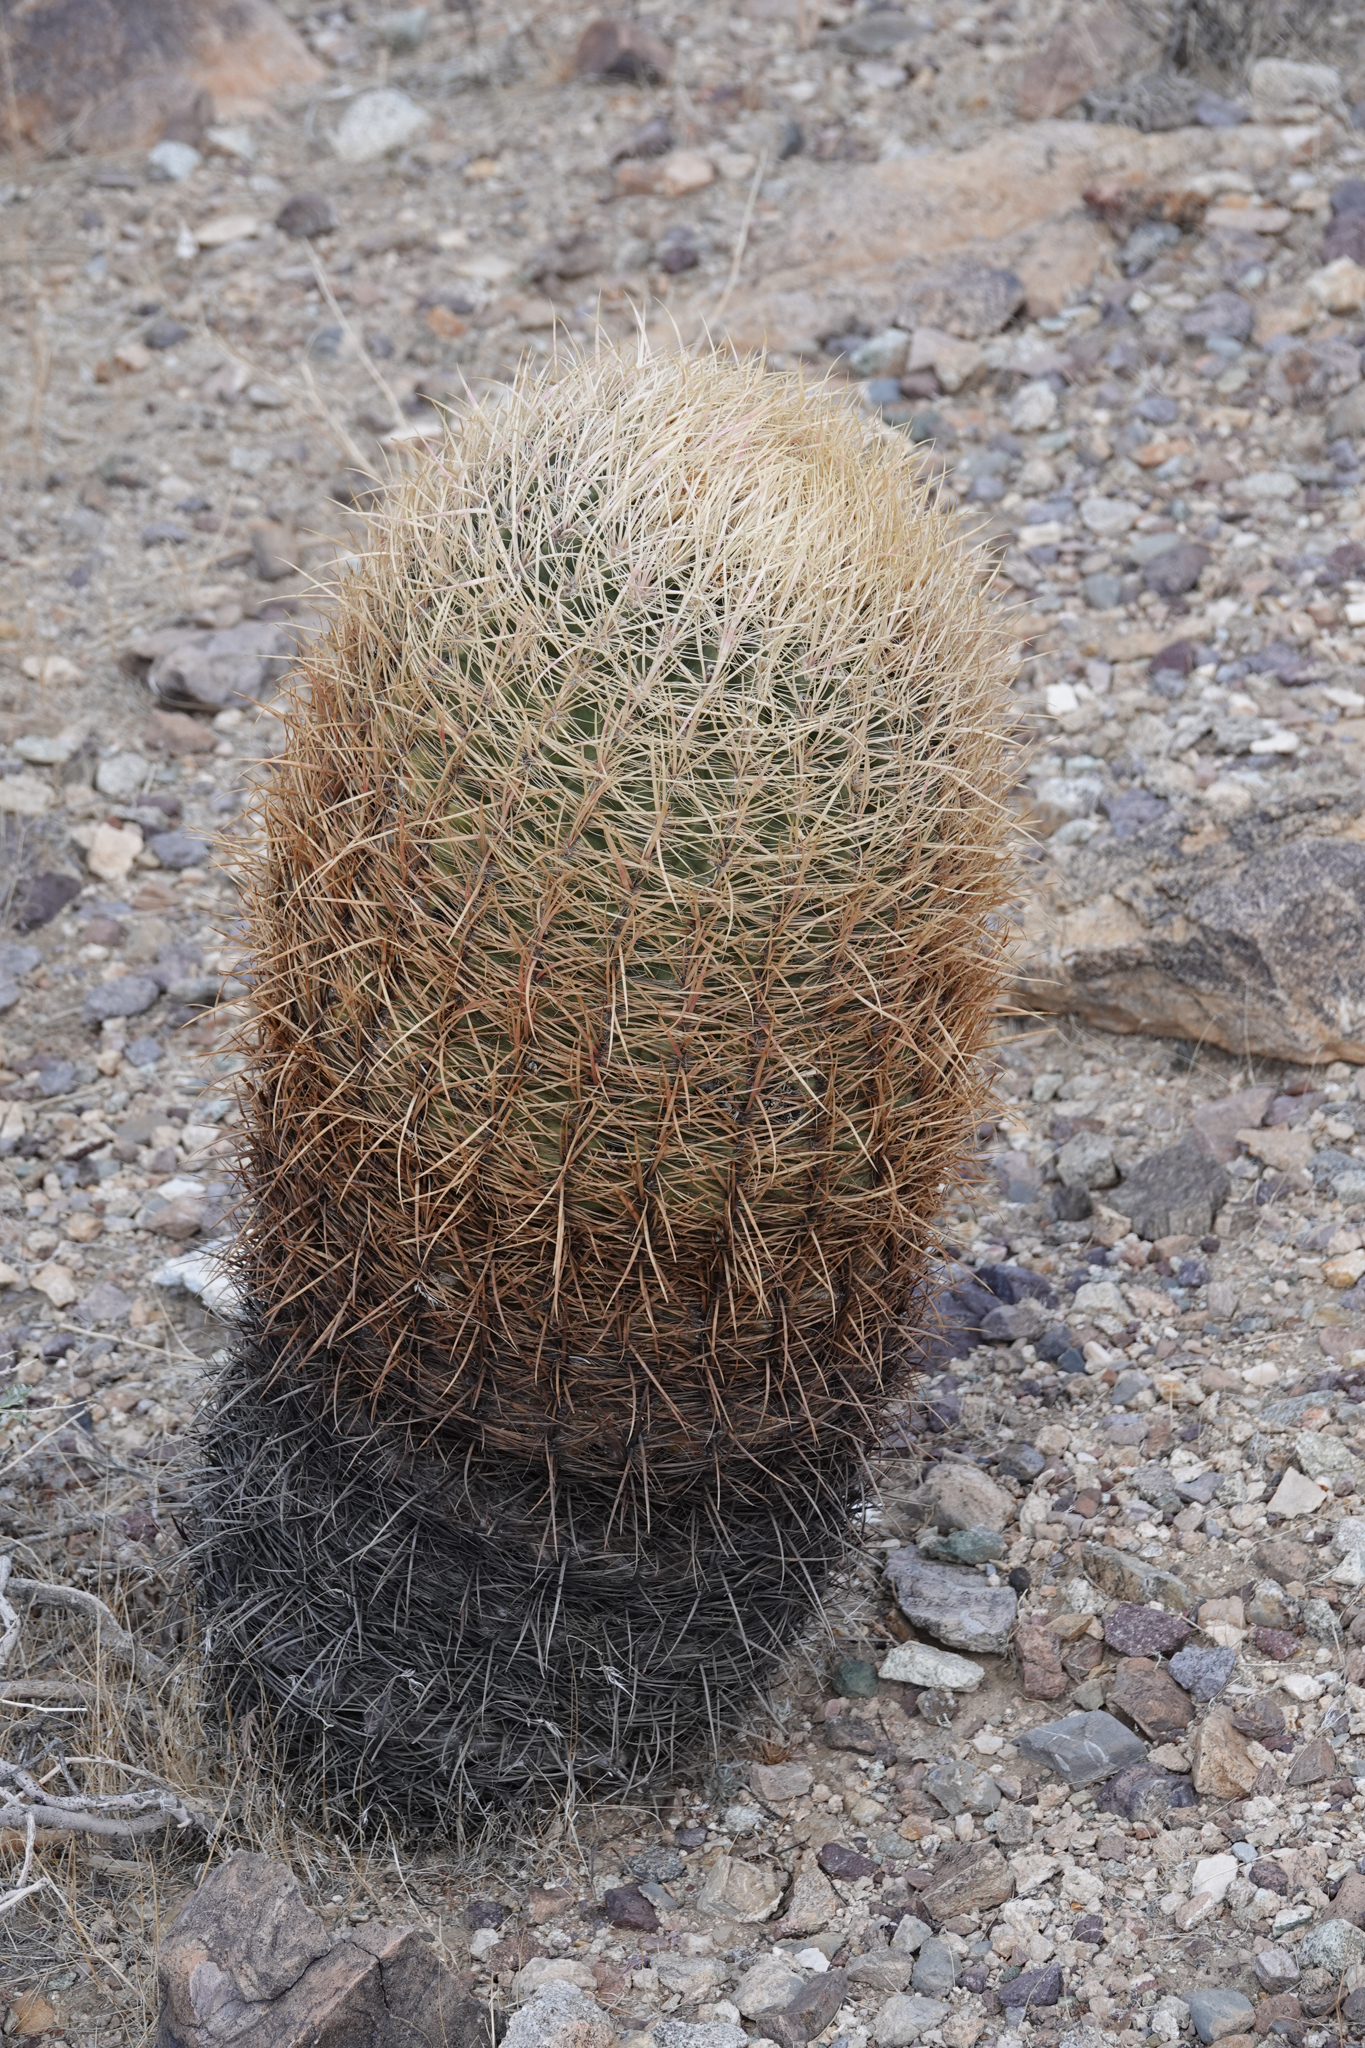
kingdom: Plantae
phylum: Tracheophyta
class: Magnoliopsida
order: Caryophyllales
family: Cactaceae
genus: Ferocactus
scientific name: Ferocactus cylindraceus
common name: California barrel cactus
